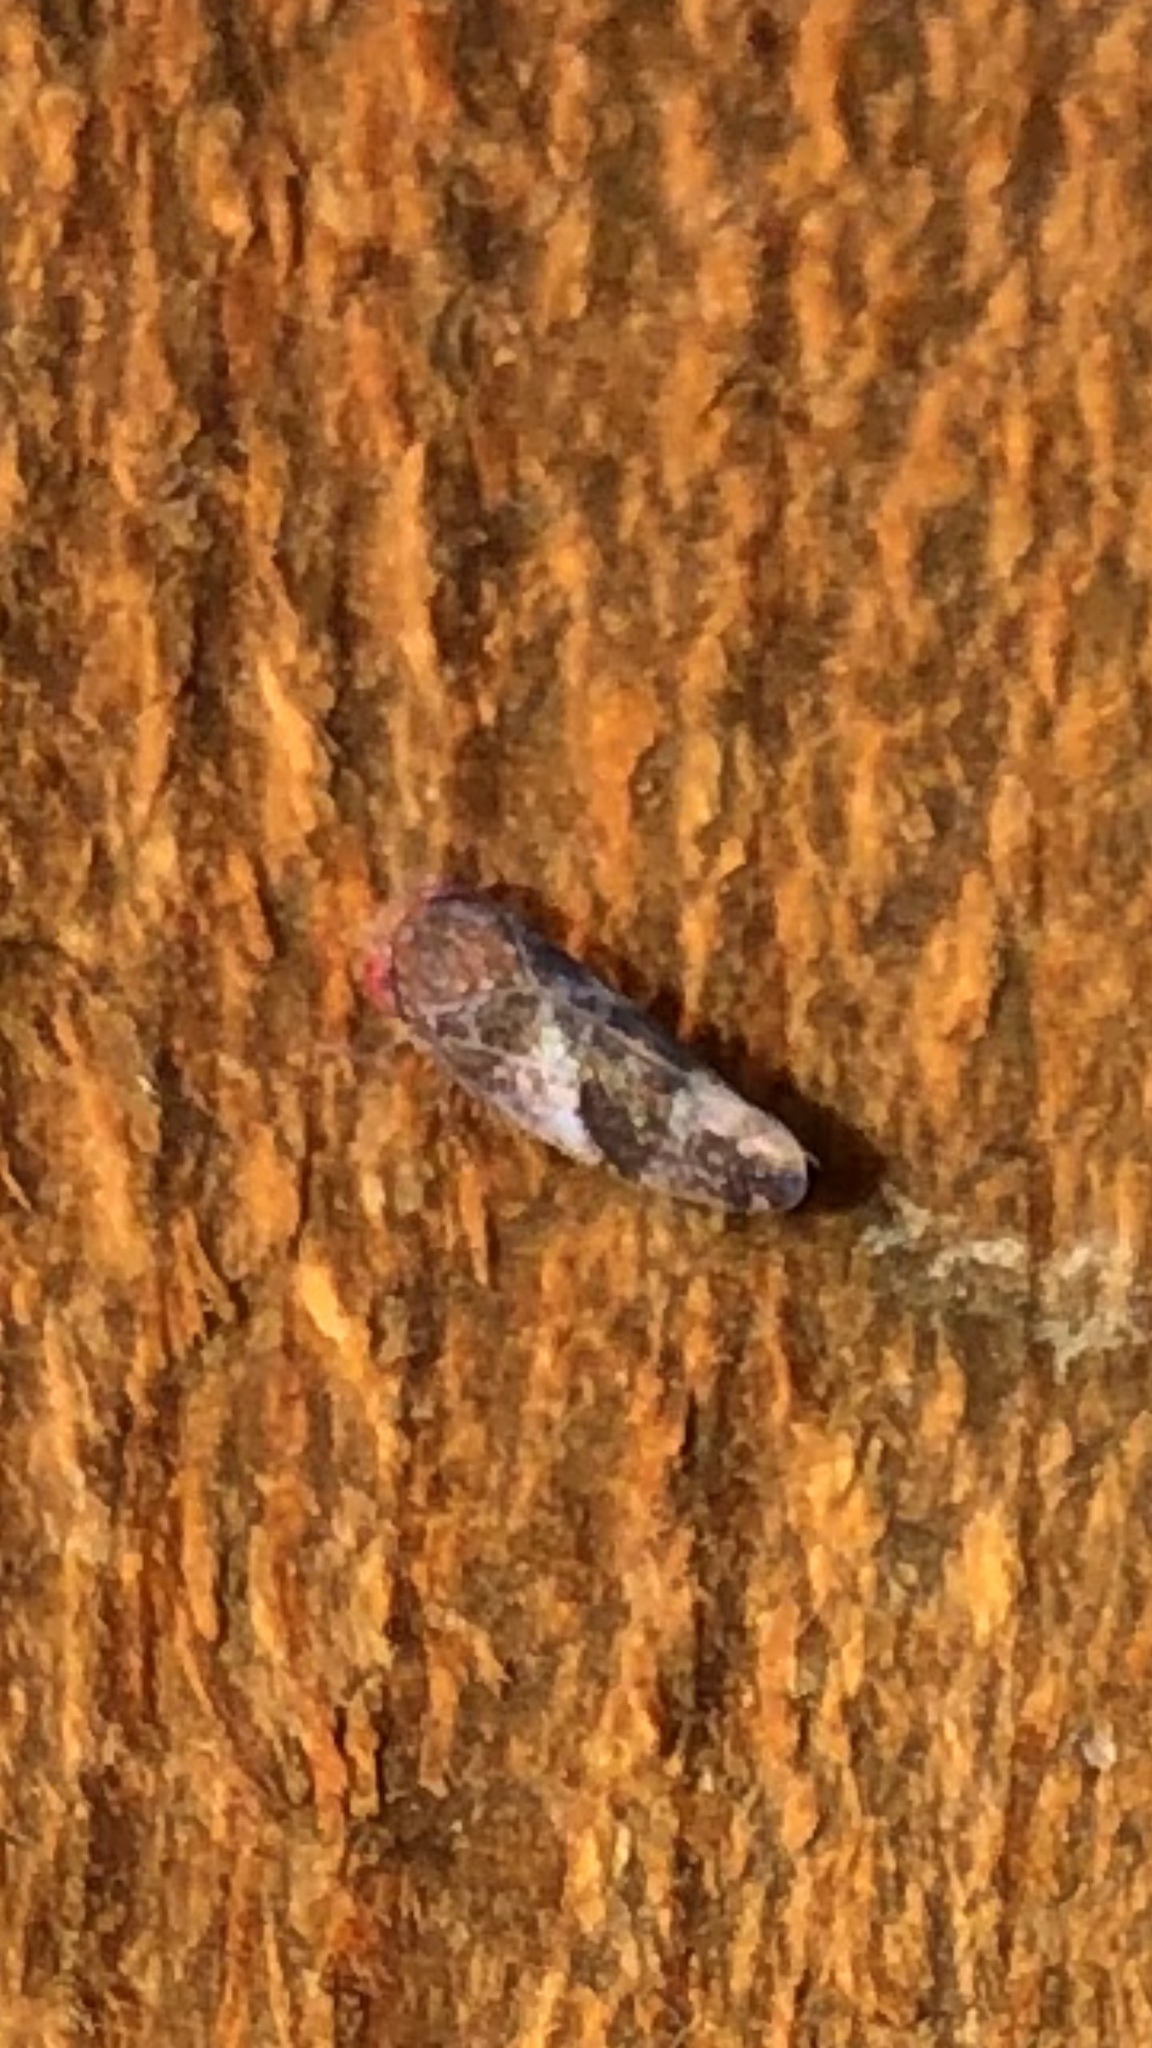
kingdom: Animalia
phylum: Arthropoda
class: Insecta
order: Hemiptera
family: Cicadellidae
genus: Norvellina
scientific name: Norvellina helenae
